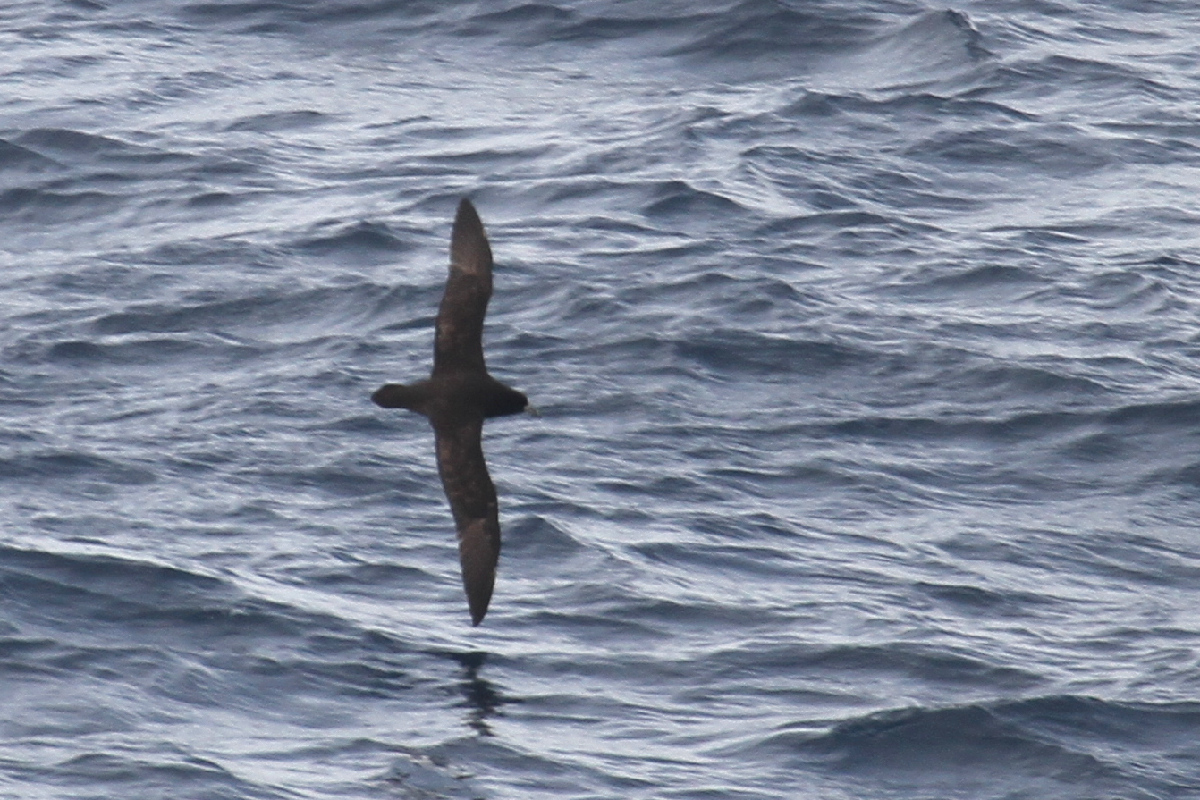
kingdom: Animalia
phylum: Chordata
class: Aves
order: Procellariiformes
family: Procellariidae
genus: Procellaria
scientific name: Procellaria aequinoctialis
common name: White-chinned petrel
